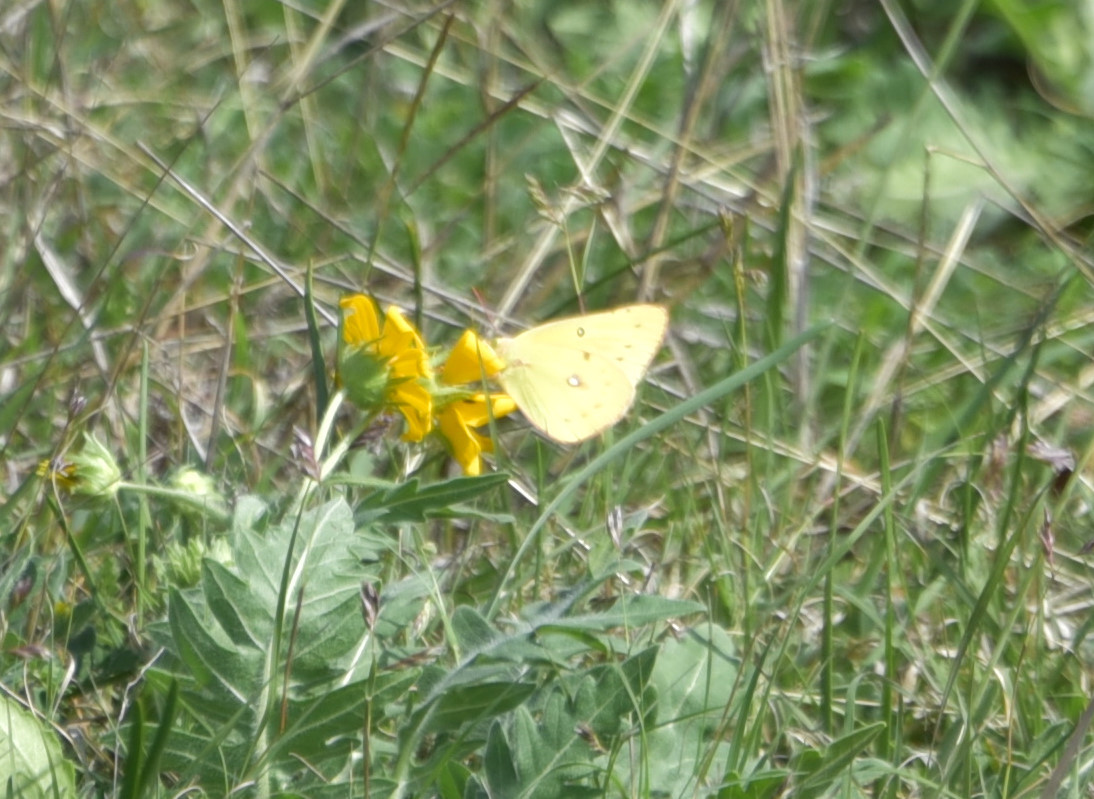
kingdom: Animalia
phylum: Arthropoda
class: Insecta
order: Lepidoptera
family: Pieridae
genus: Colias
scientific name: Colias eurytheme
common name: Alfalfa butterfly
